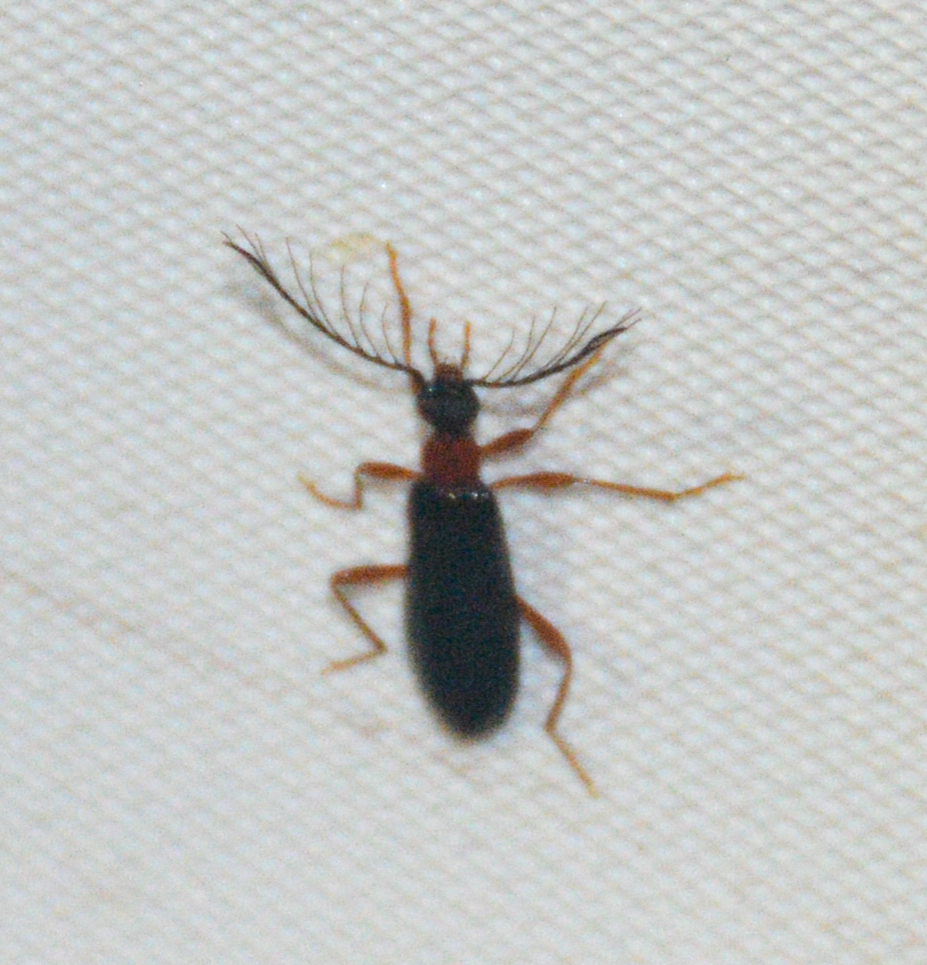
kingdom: Animalia
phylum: Arthropoda
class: Insecta
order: Coleoptera
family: Pyrochroidae
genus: Dendroides
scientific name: Dendroides canadensis
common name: Canada fire-colored beetle
